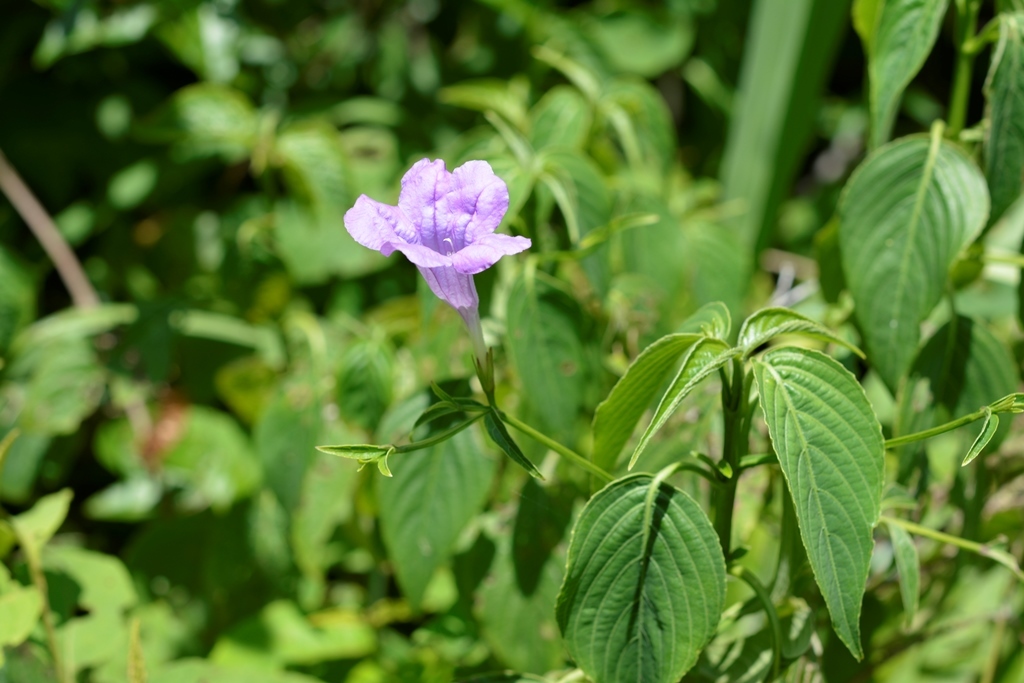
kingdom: Plantae
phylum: Tracheophyta
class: Magnoliopsida
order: Lamiales
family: Acanthaceae
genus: Ruellia
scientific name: Ruellia breedlovei
